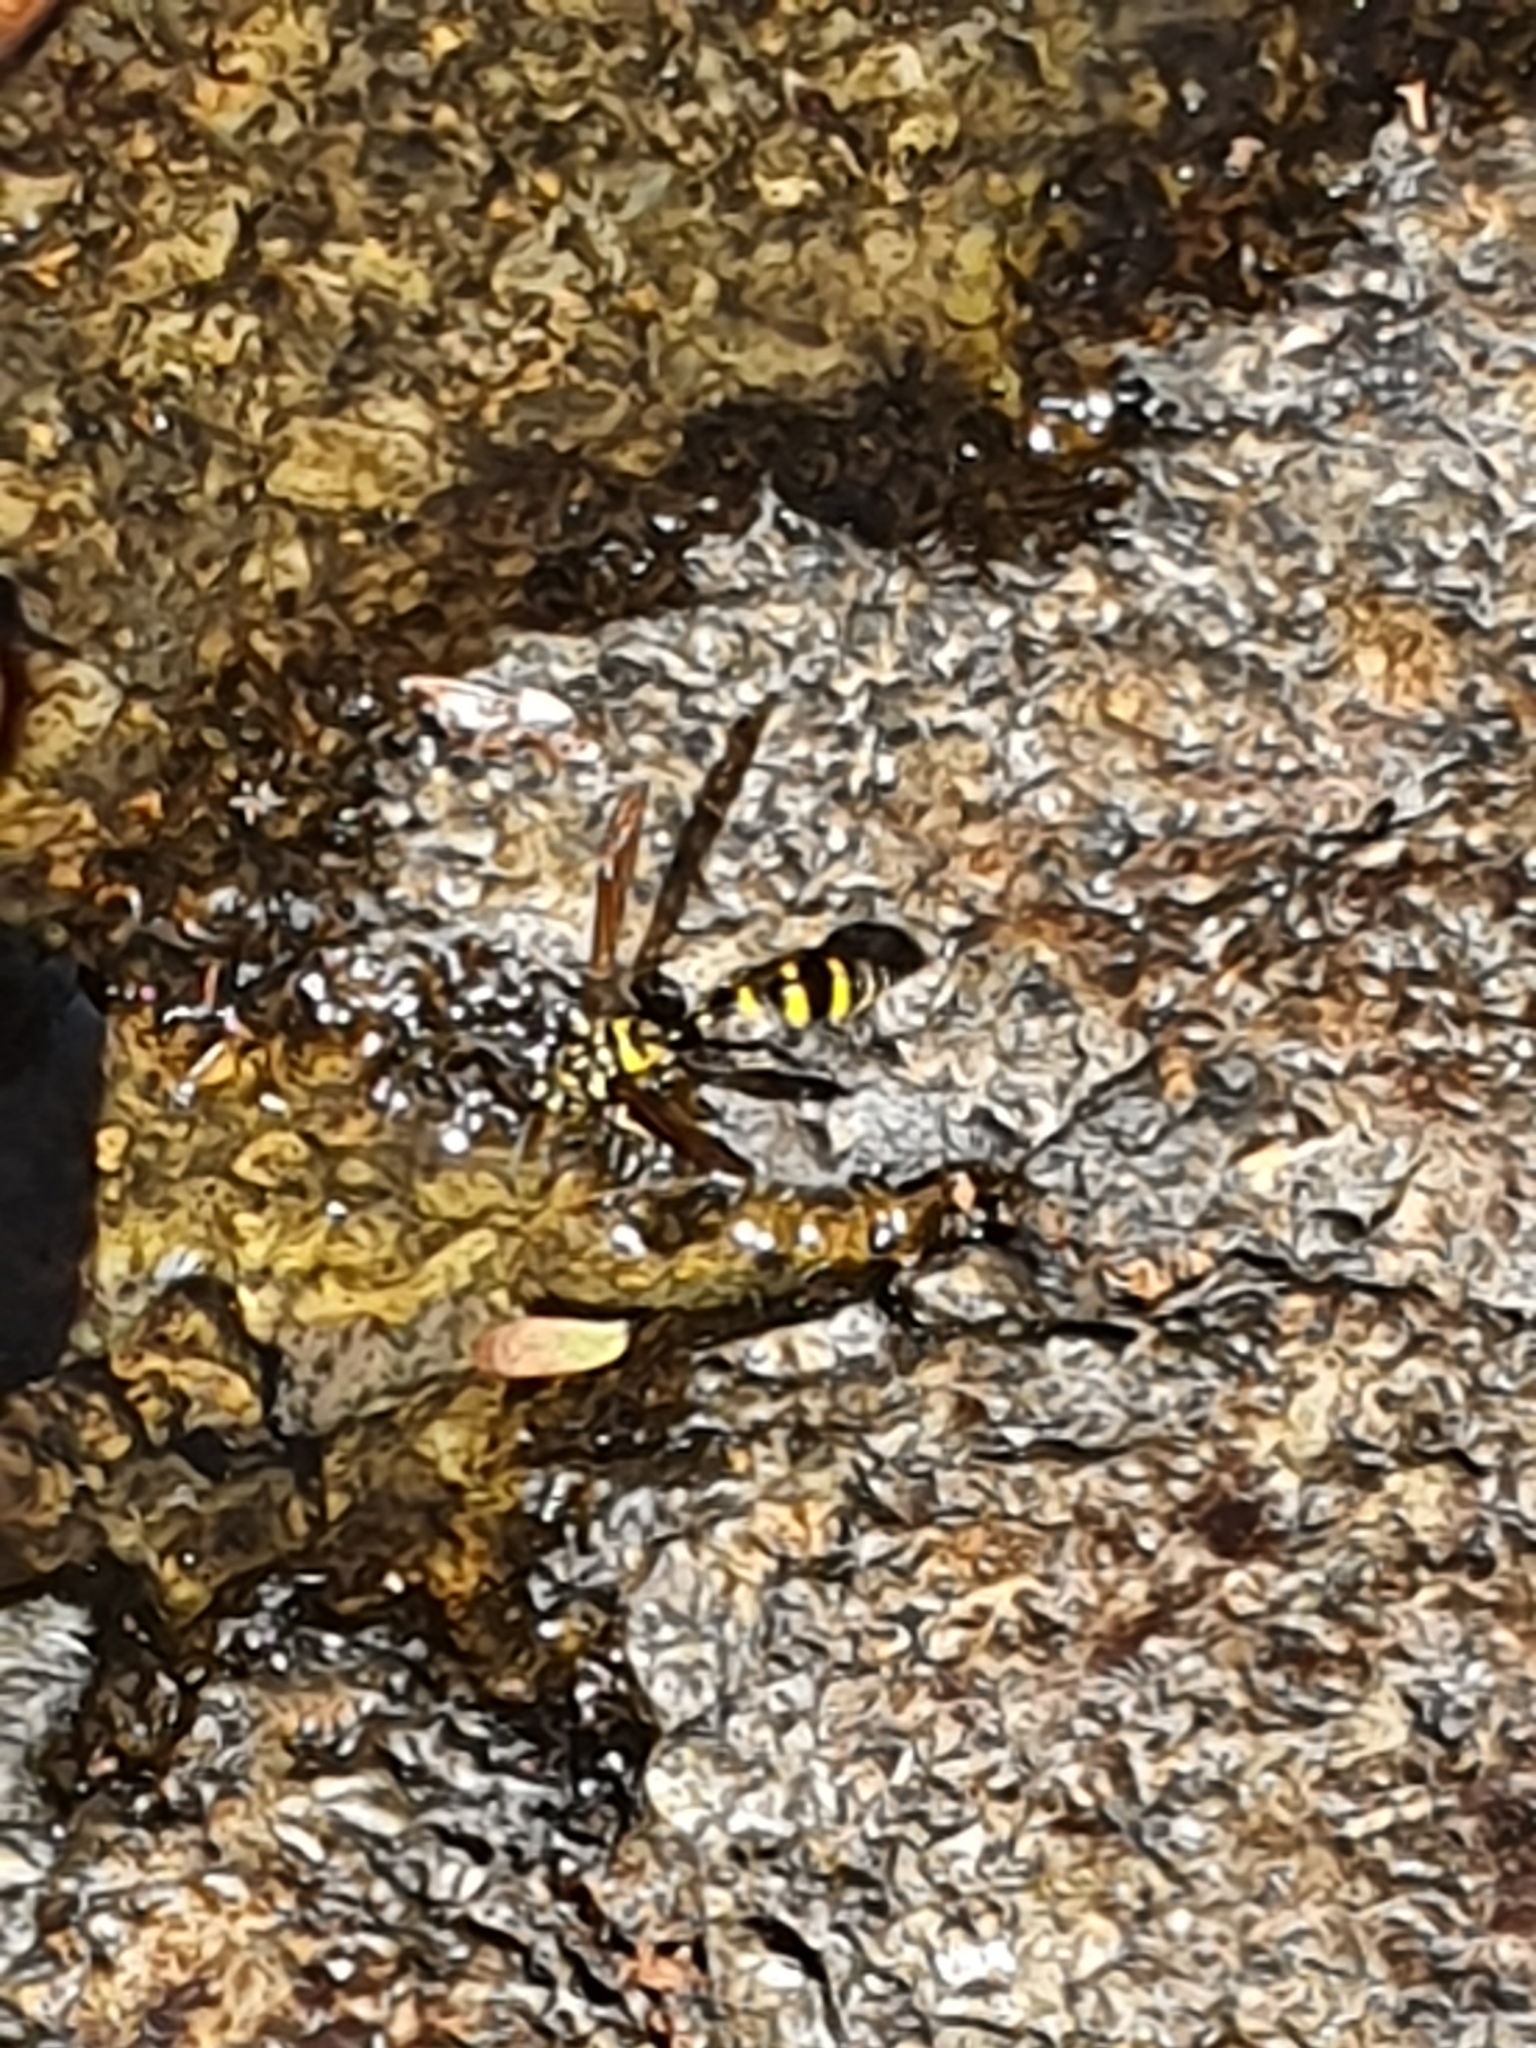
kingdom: Animalia
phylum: Arthropoda
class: Insecta
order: Hymenoptera
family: Eumenidae
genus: Phimenes
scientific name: Phimenes flavopictus
